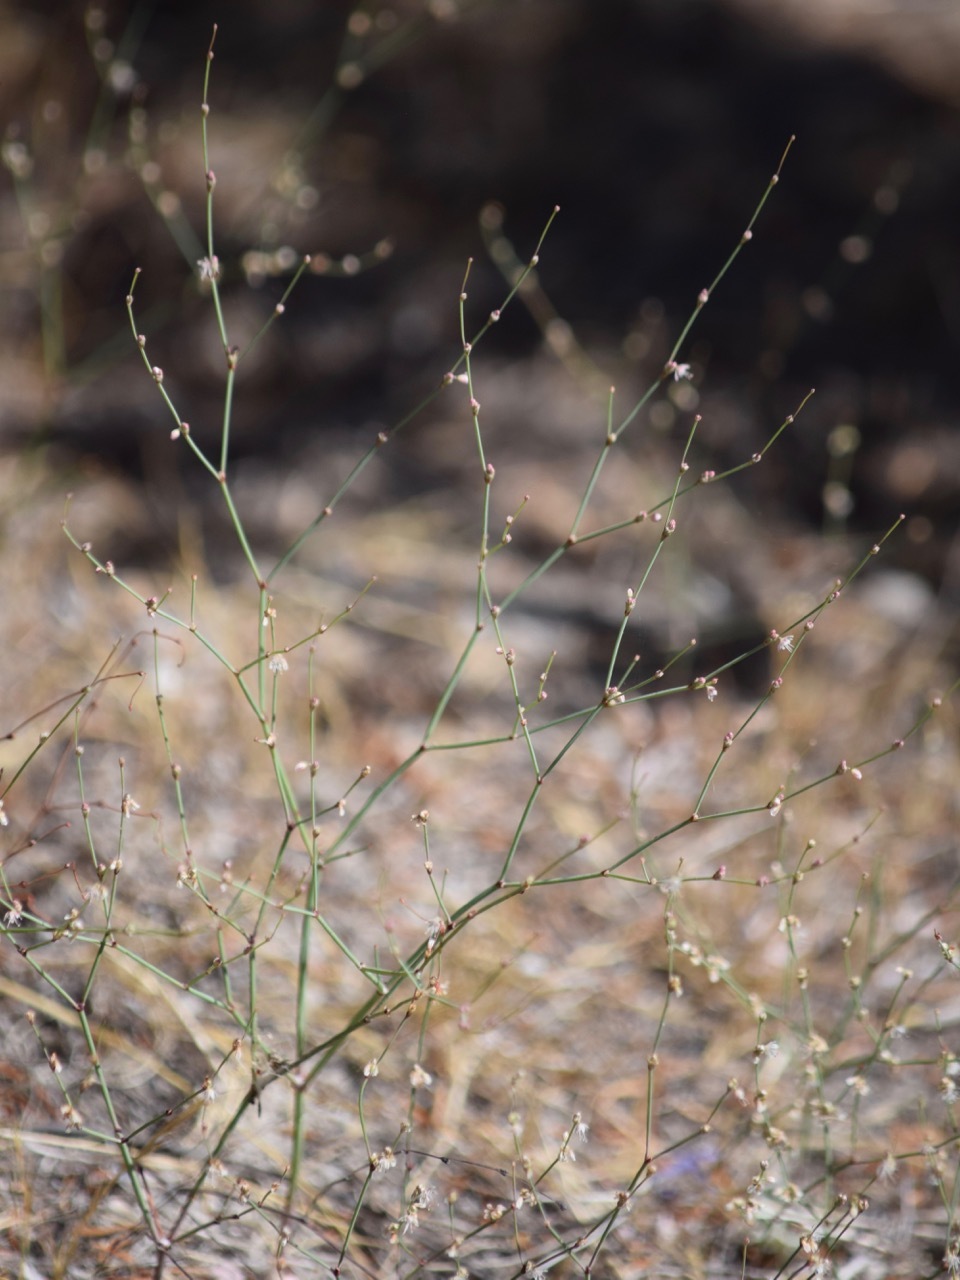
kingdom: Plantae
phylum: Tracheophyta
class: Magnoliopsida
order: Caryophyllales
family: Polygonaceae
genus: Eriogonum
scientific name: Eriogonum elegans
